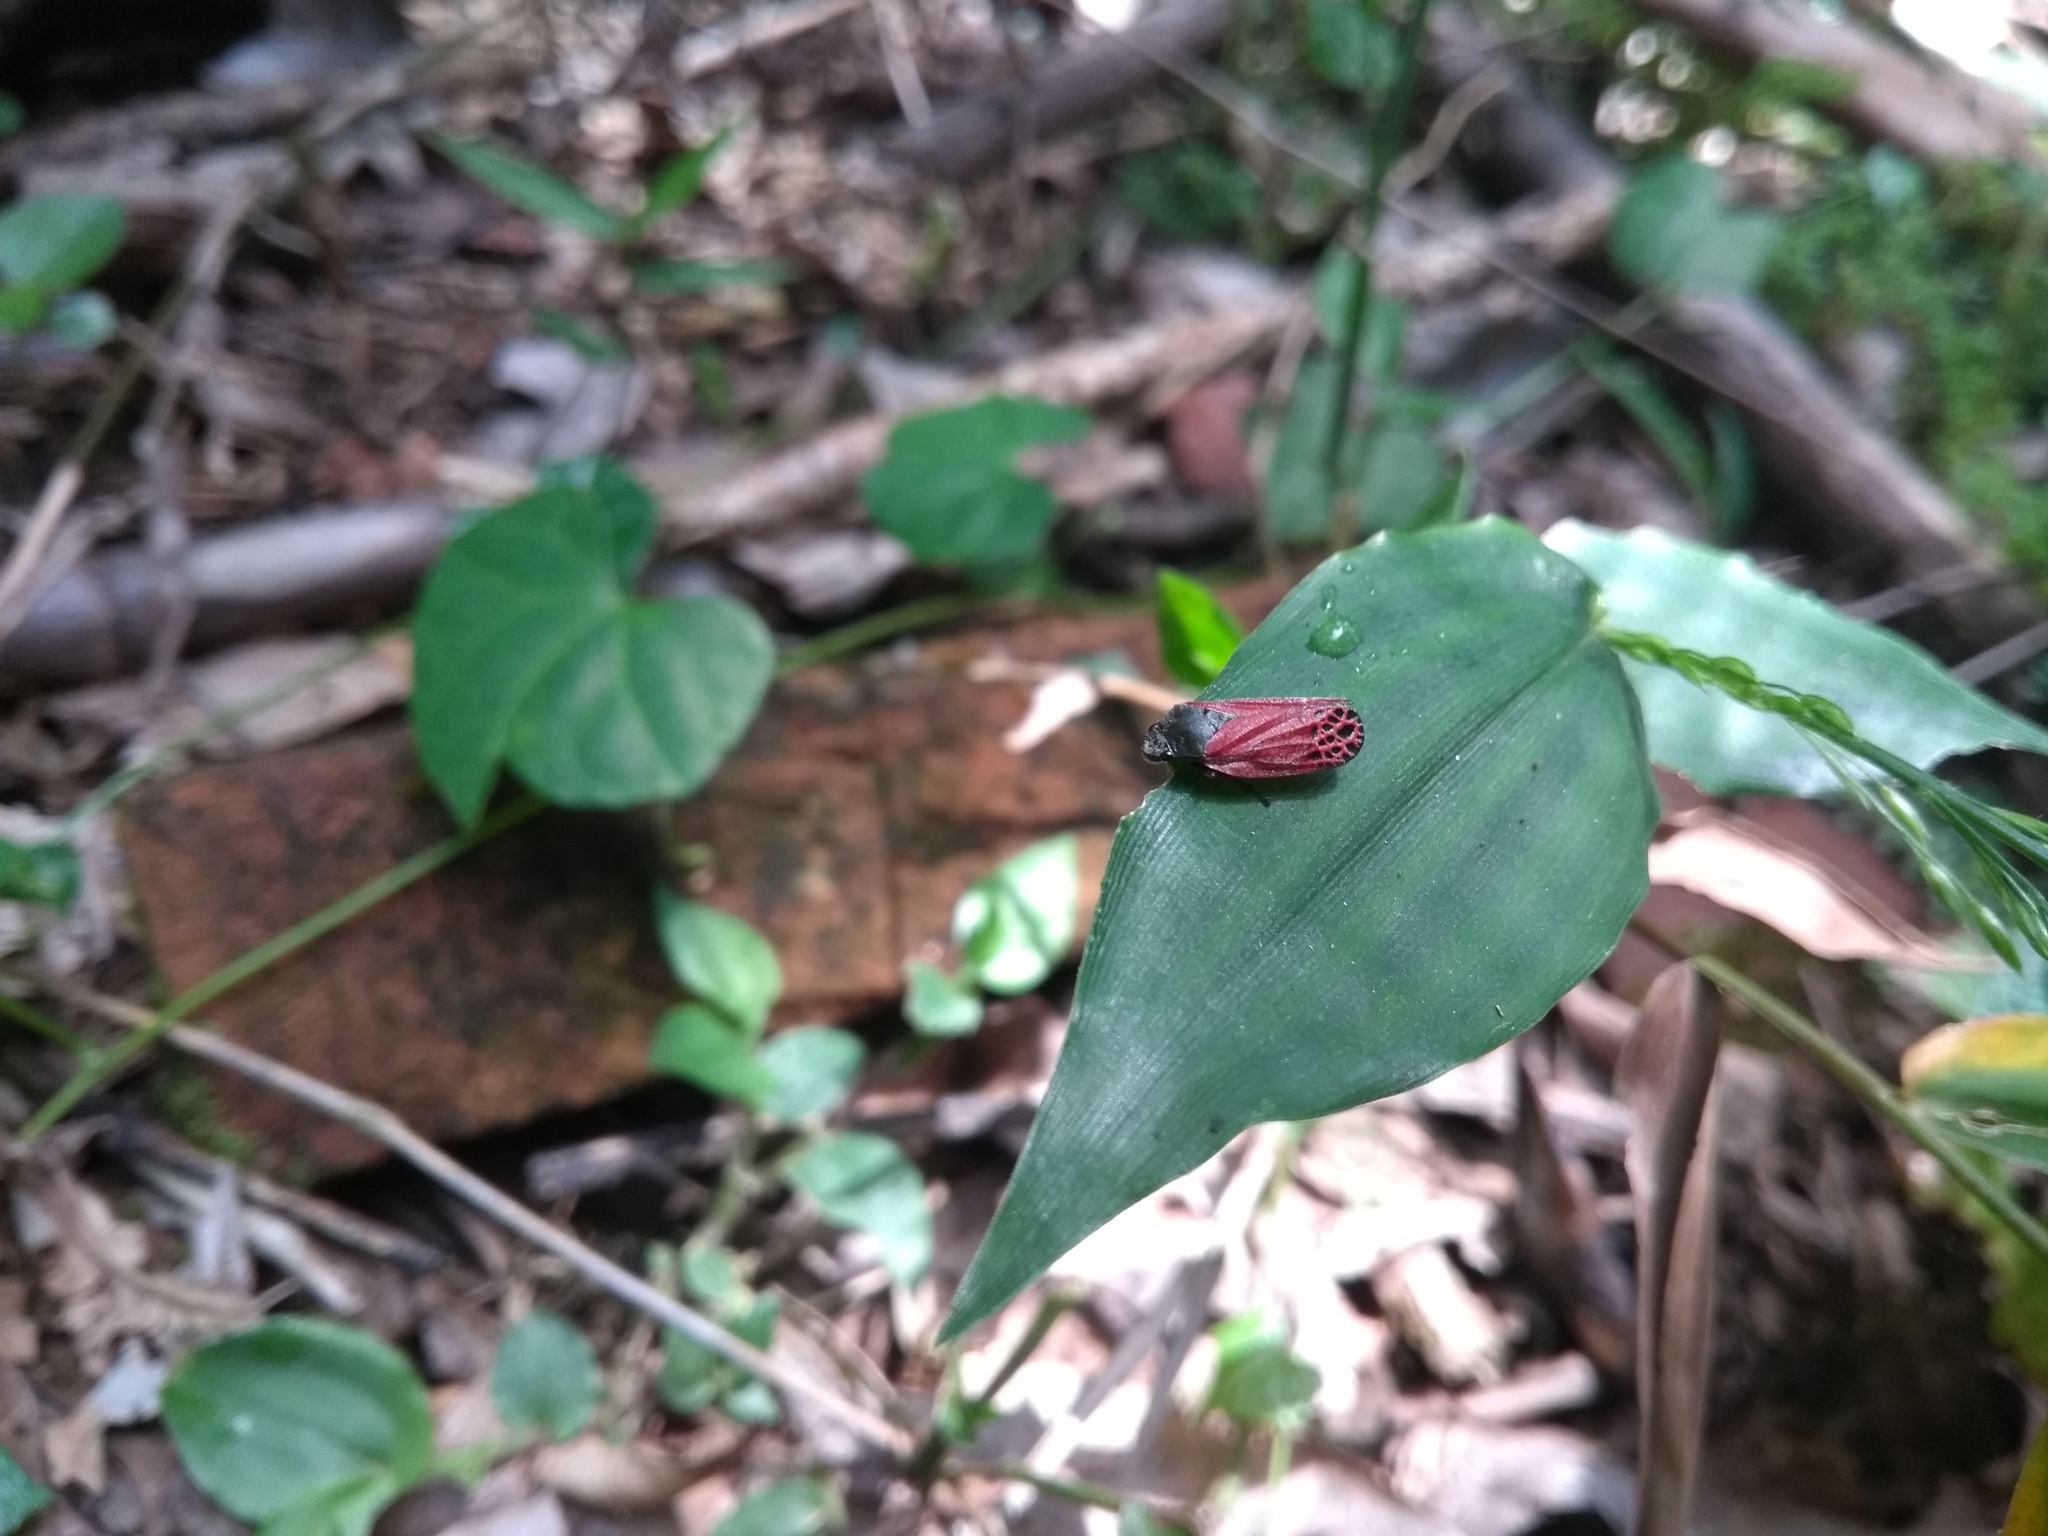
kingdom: Animalia
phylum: Arthropoda
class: Insecta
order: Hemiptera
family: Cercopidae
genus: Mahanarva
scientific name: Mahanarva rubripennis
